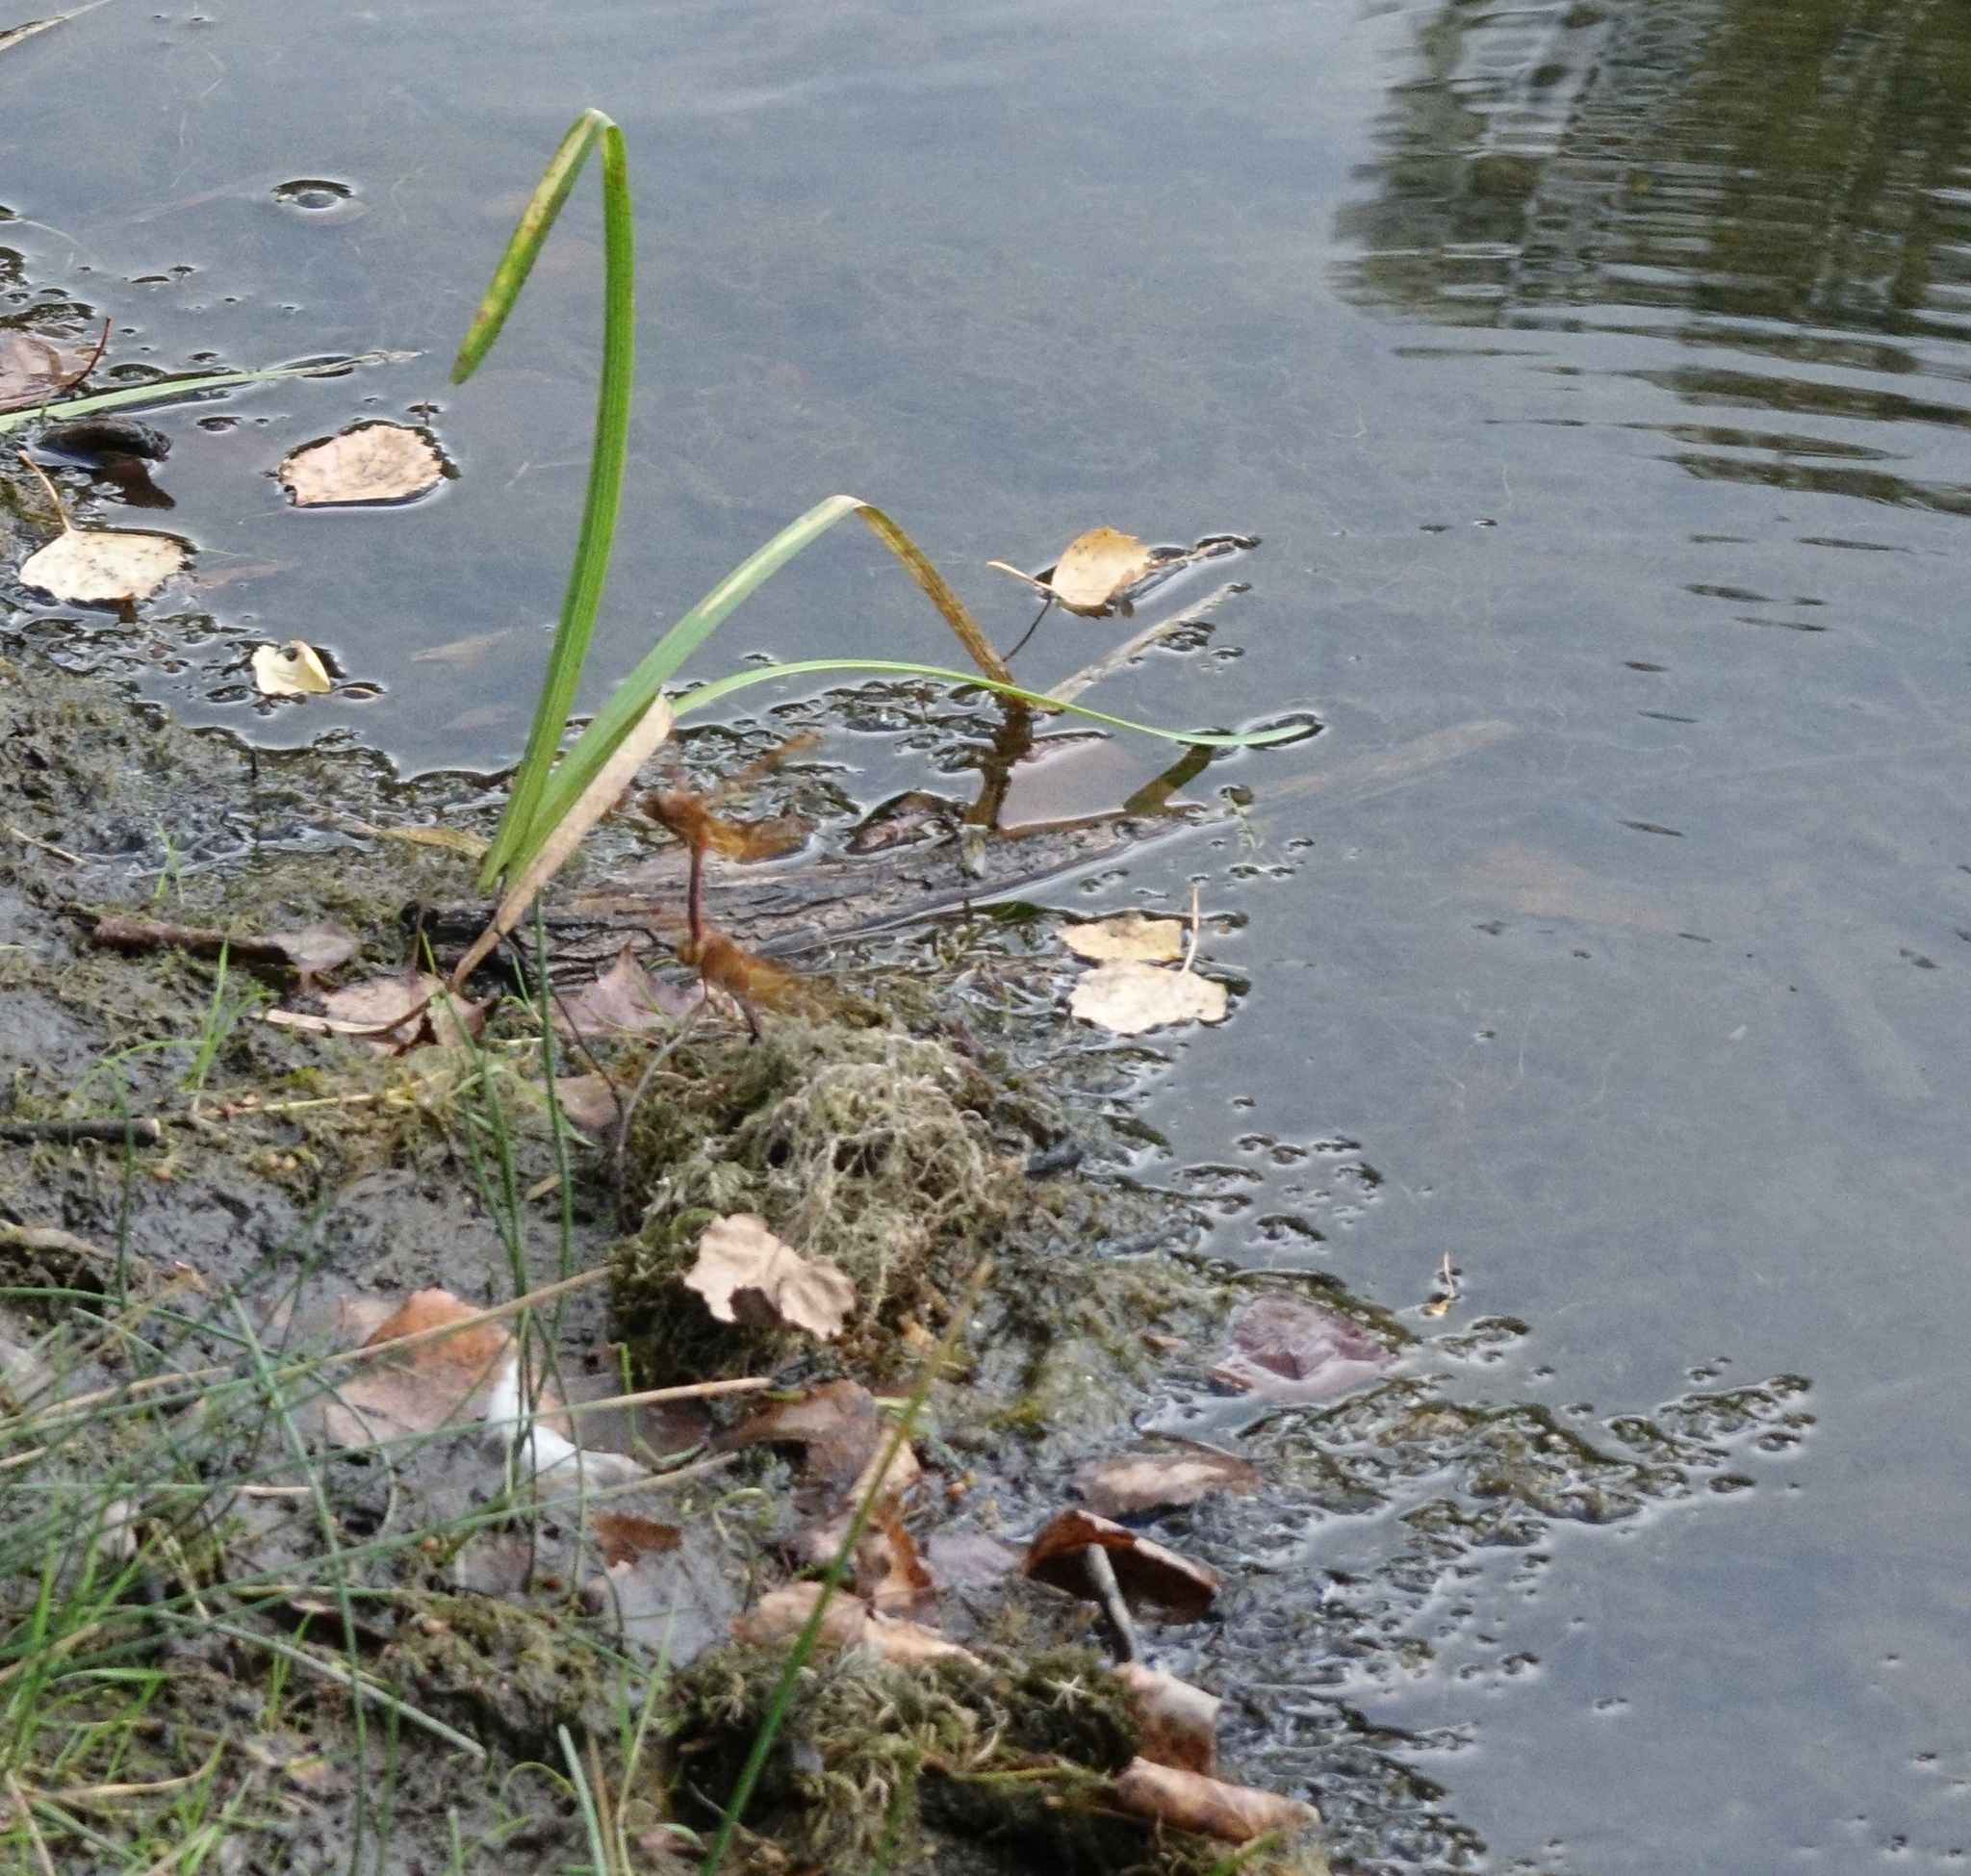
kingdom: Animalia
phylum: Arthropoda
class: Insecta
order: Odonata
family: Libellulidae
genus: Sympetrum
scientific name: Sympetrum croceolum
